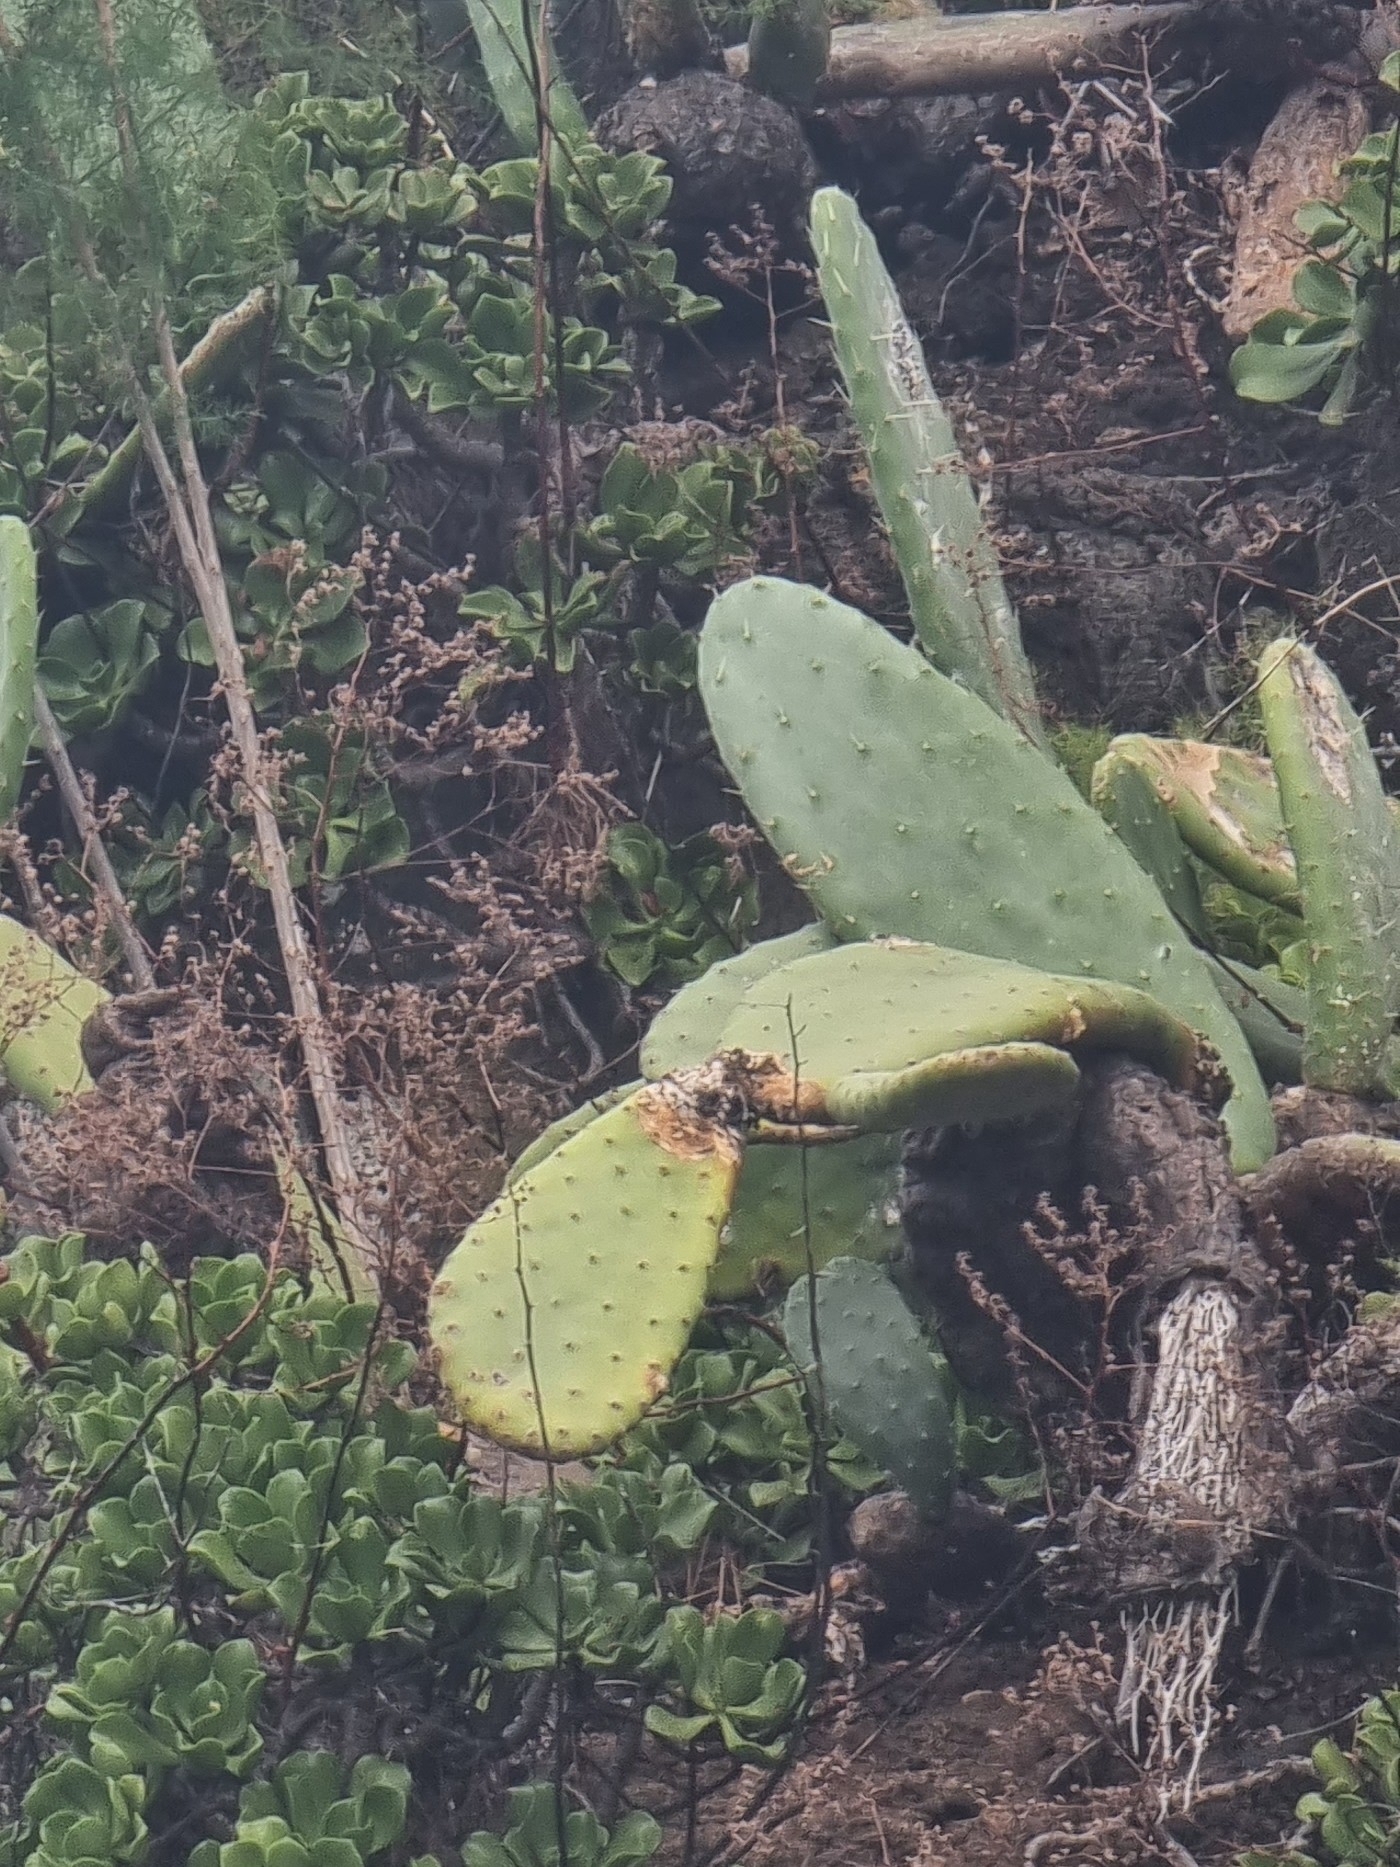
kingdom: Plantae
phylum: Tracheophyta
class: Magnoliopsida
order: Caryophyllales
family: Cactaceae
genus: Opuntia
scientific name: Opuntia ficus-indica
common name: Barbary fig
